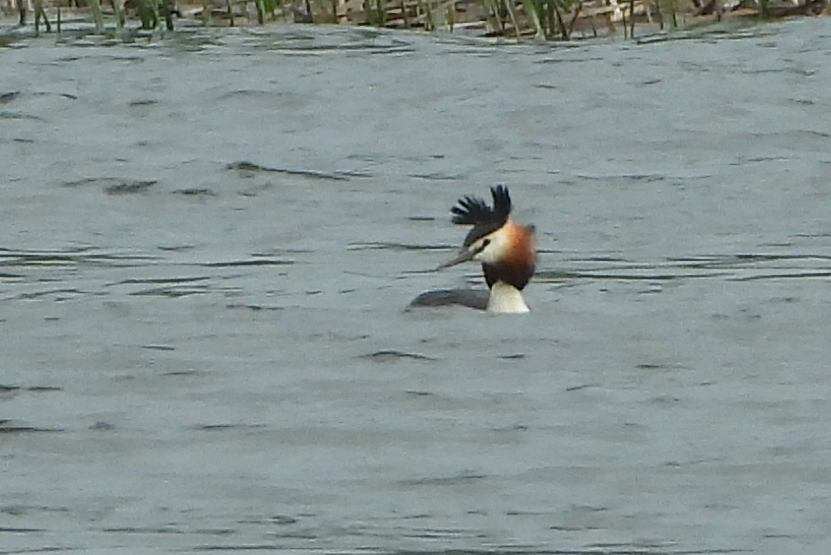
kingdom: Animalia
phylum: Chordata
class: Aves
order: Podicipediformes
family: Podicipedidae
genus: Podiceps
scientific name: Podiceps cristatus
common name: Great crested grebe
